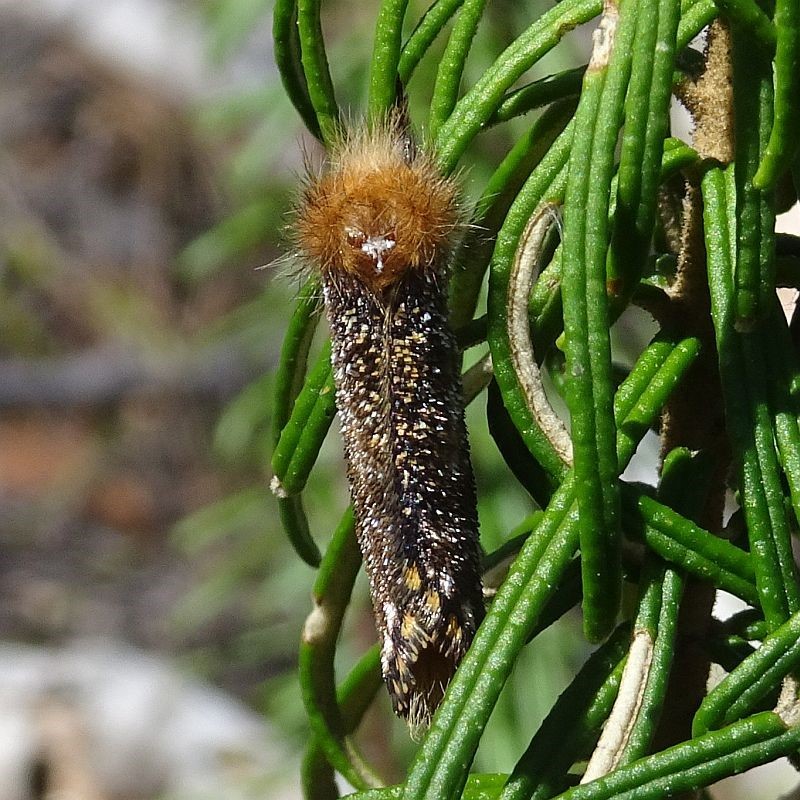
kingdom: Animalia
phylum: Arthropoda
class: Insecta
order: Lepidoptera
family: Notodontidae
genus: Epicoma
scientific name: Epicoma contristis
